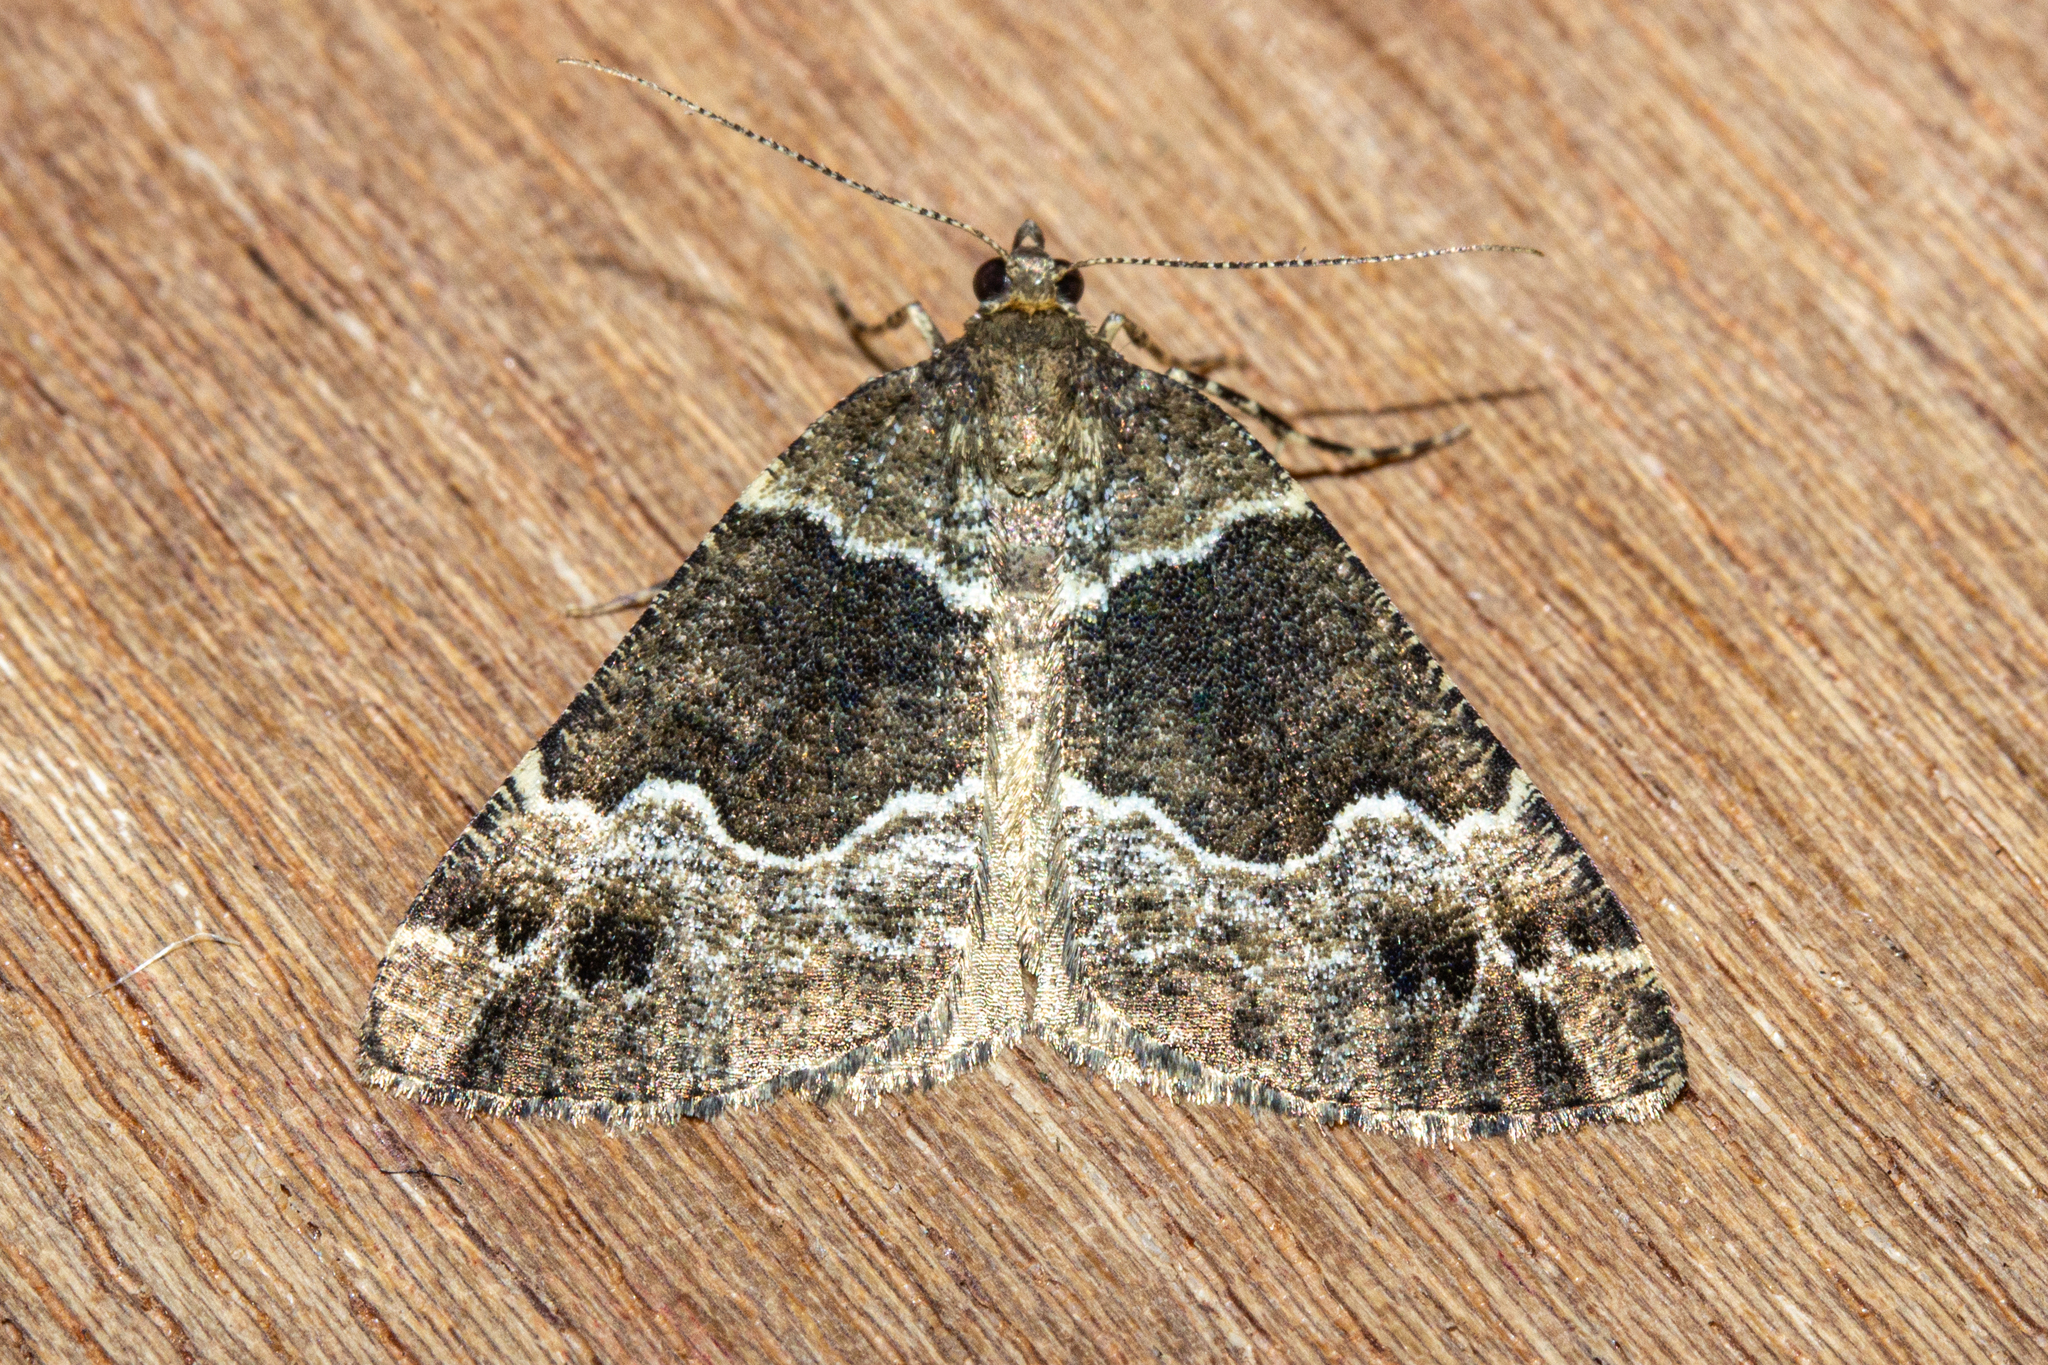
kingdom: Animalia
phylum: Arthropoda
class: Insecta
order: Lepidoptera
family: Geometridae
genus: Pseudocoremia
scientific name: Pseudocoremia
